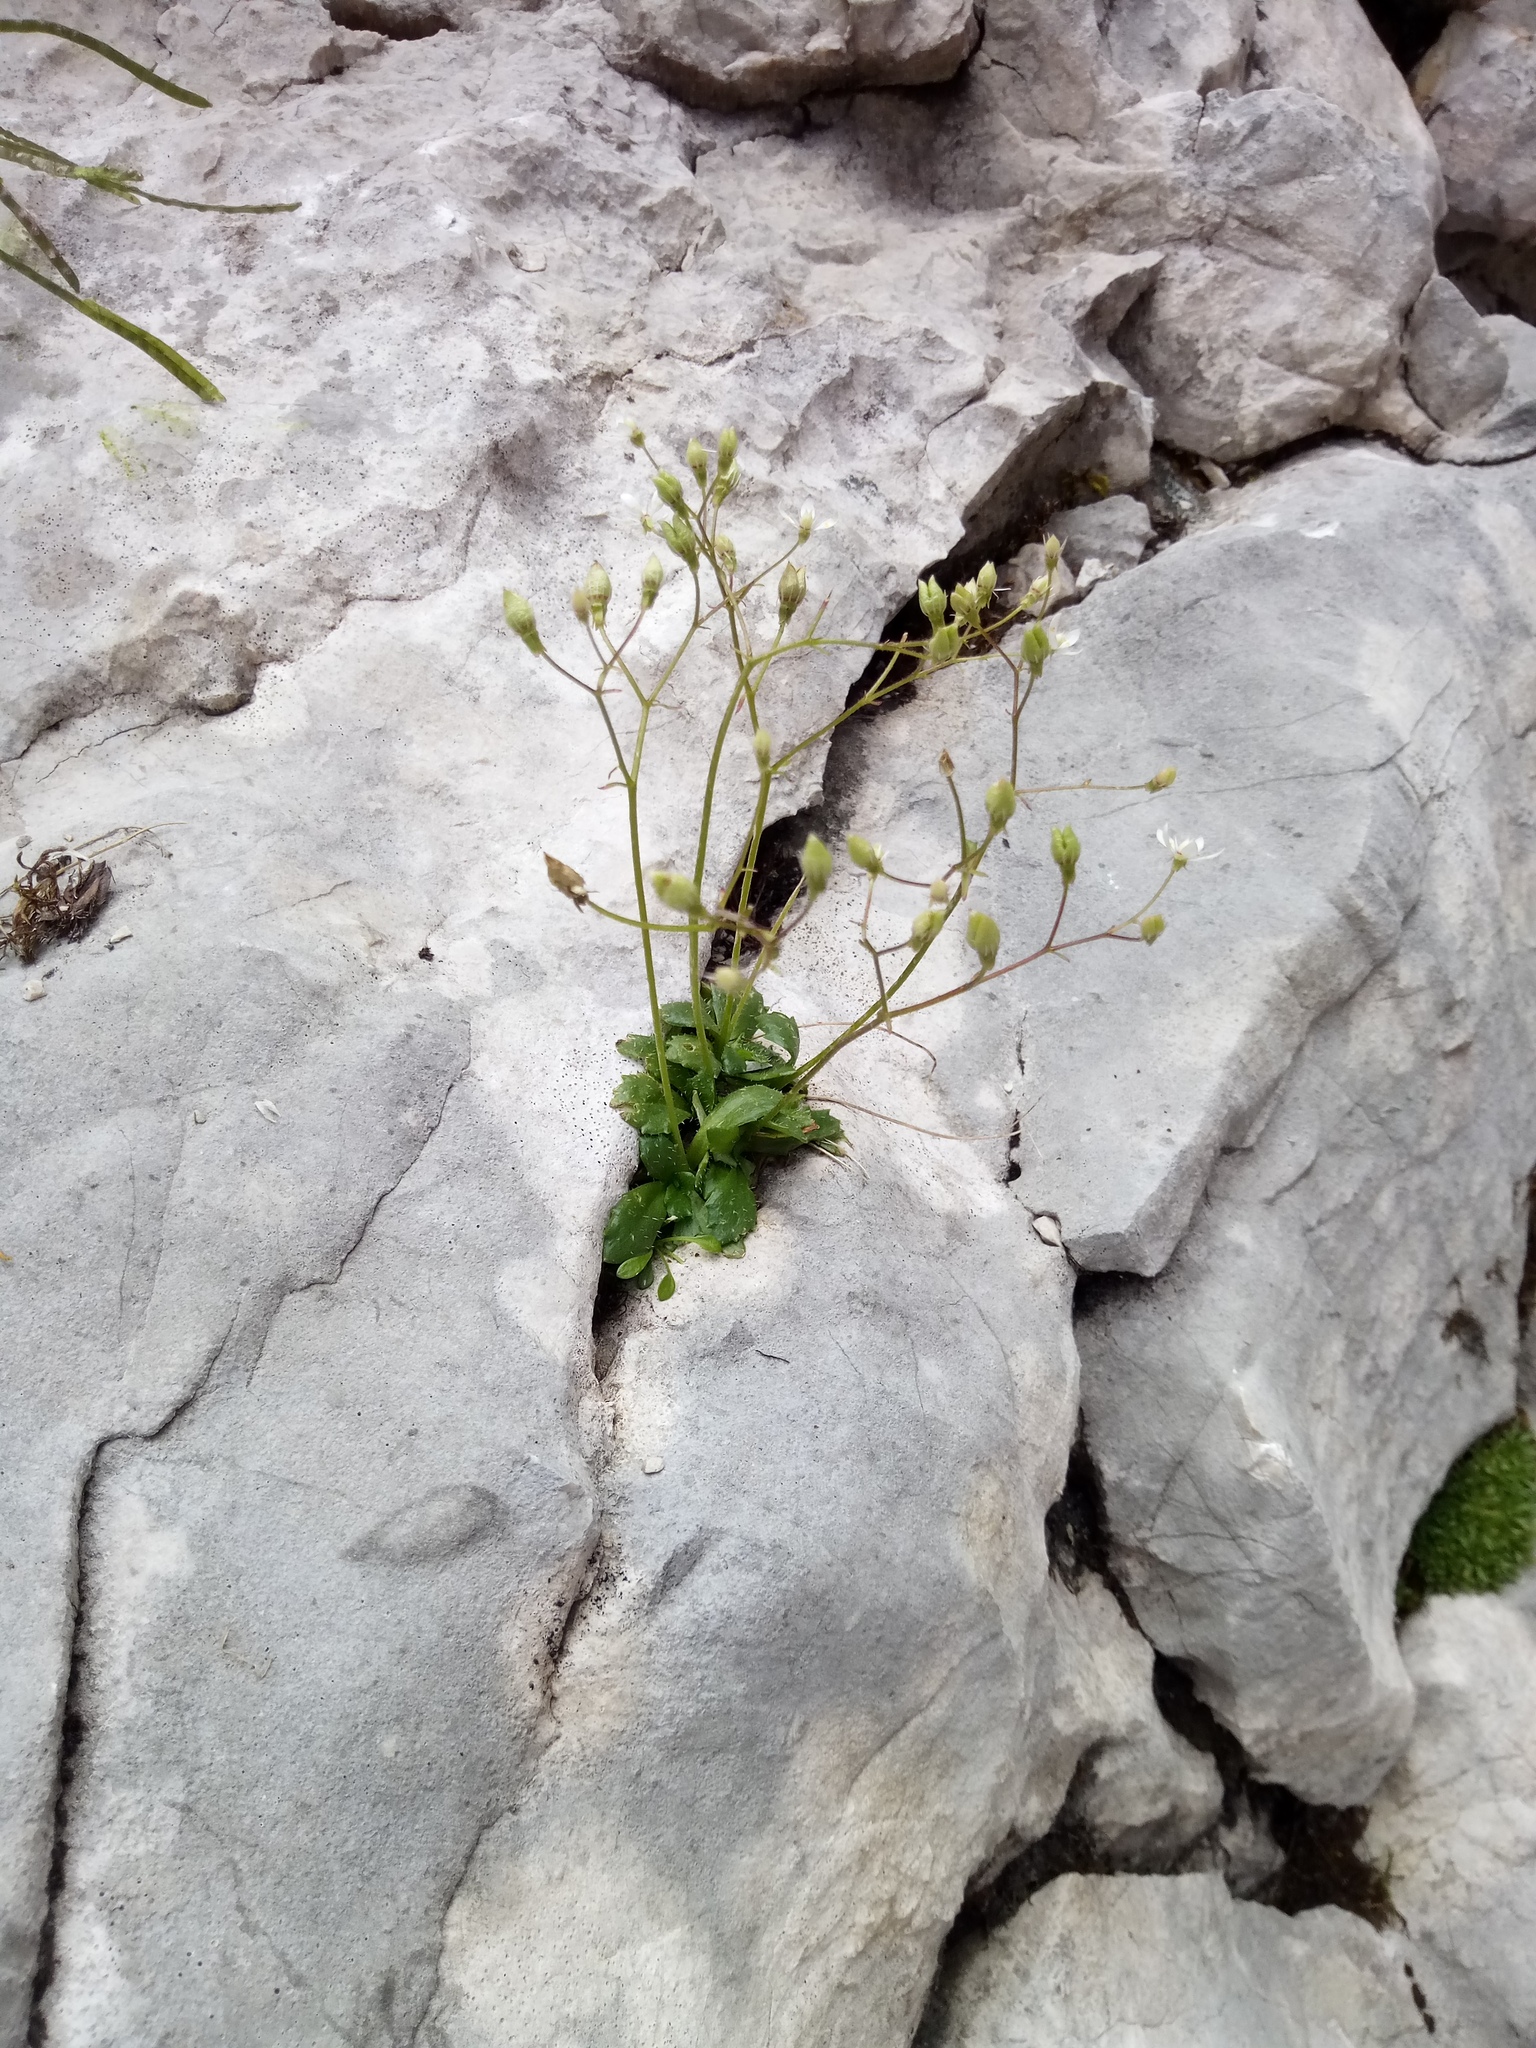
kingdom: Plantae
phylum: Tracheophyta
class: Magnoliopsida
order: Saxifragales
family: Saxifragaceae
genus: Micranthes
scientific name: Micranthes stellaris
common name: Starry saxifrage
